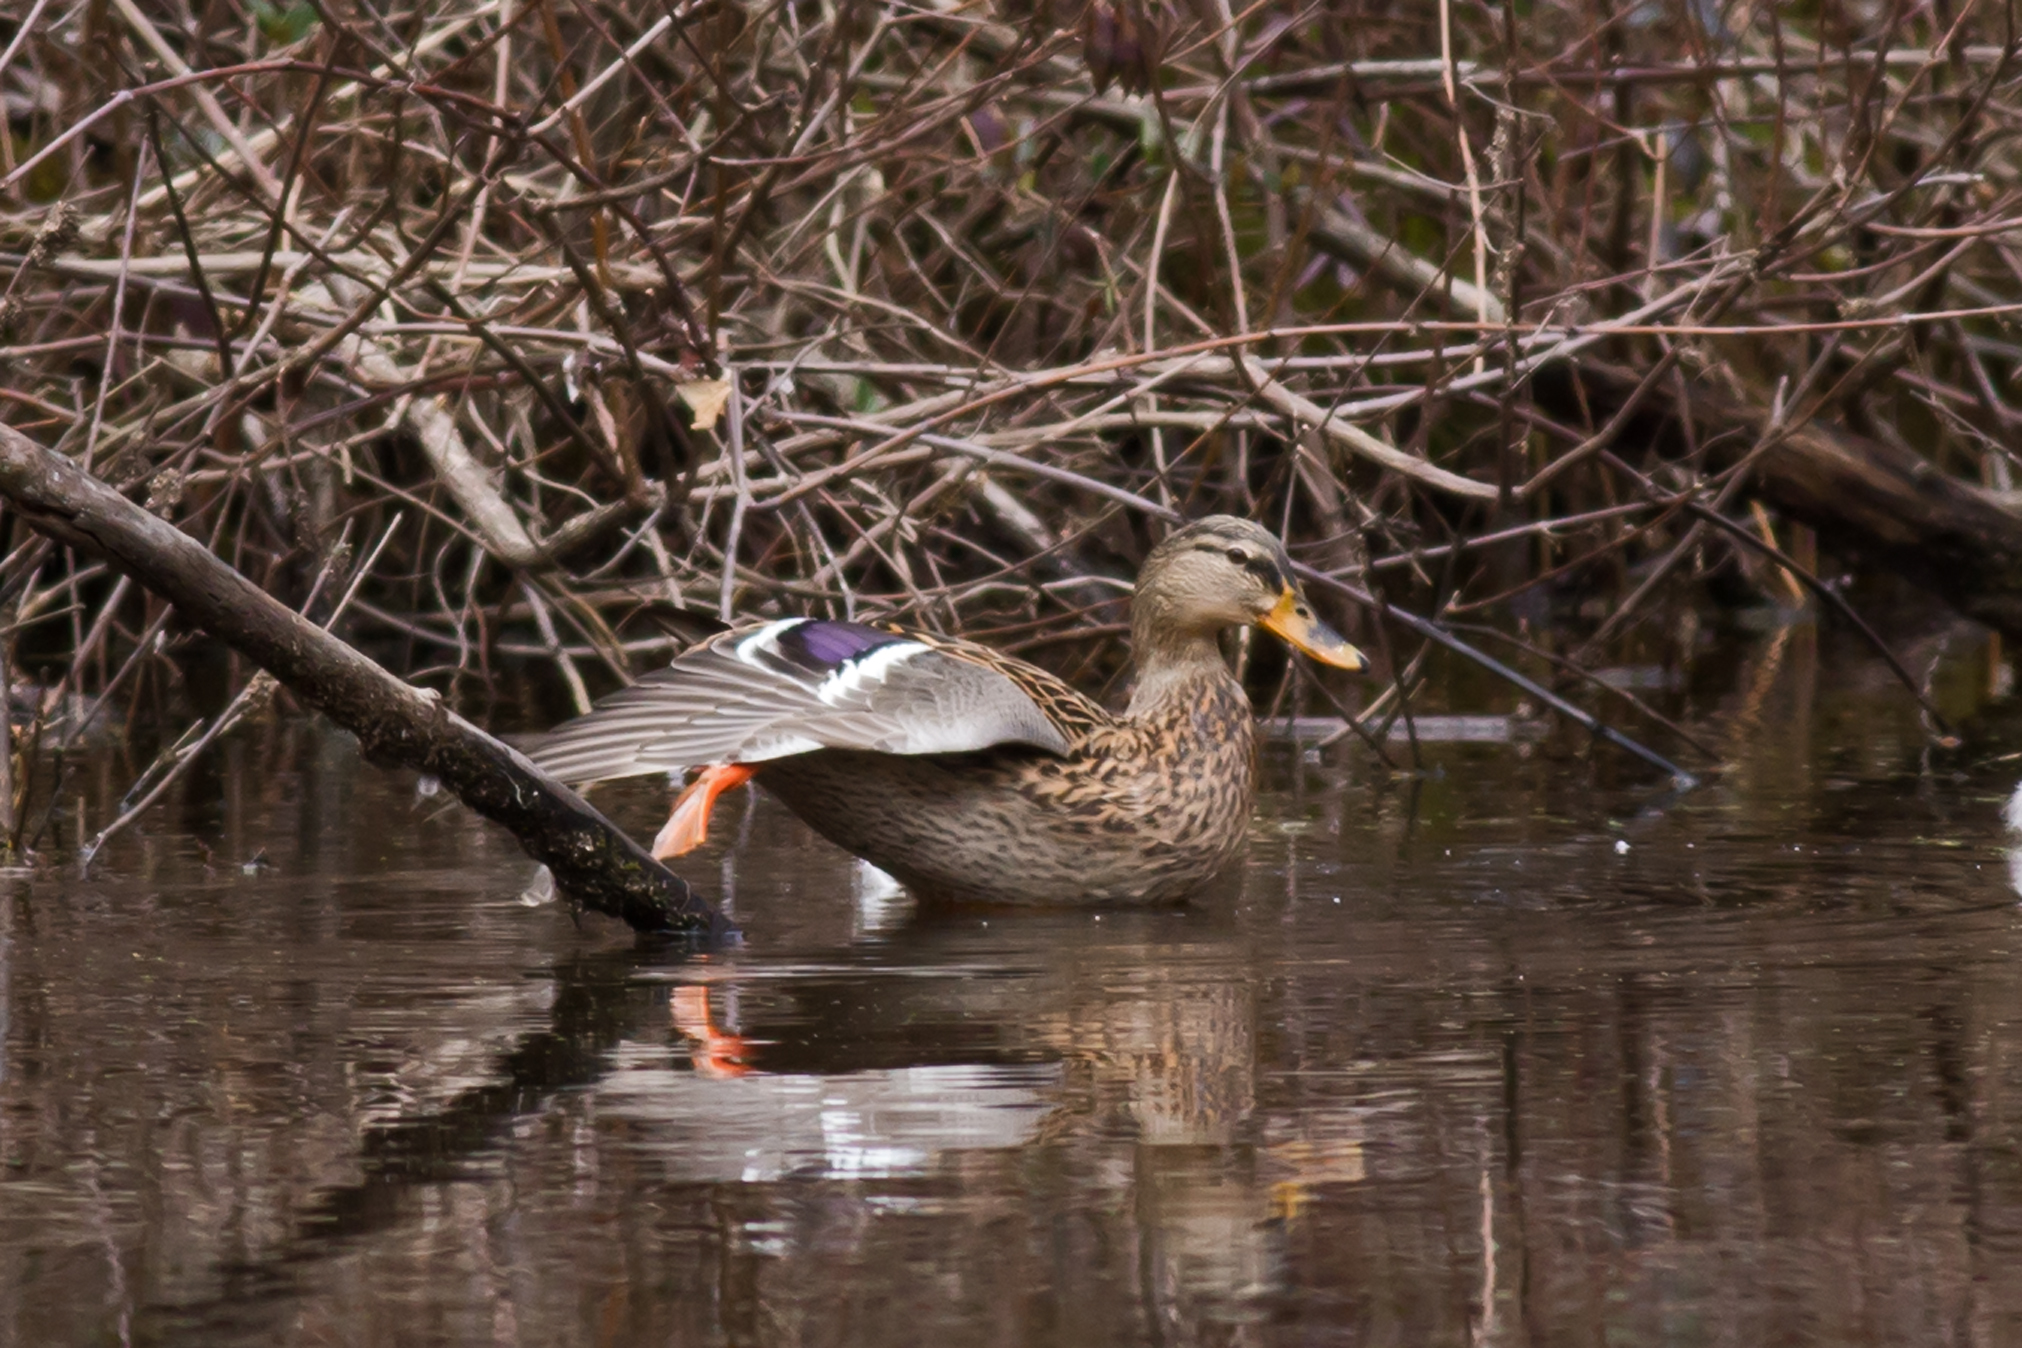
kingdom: Animalia
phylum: Chordata
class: Aves
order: Anseriformes
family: Anatidae
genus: Anas
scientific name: Anas platyrhynchos
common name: Mallard
